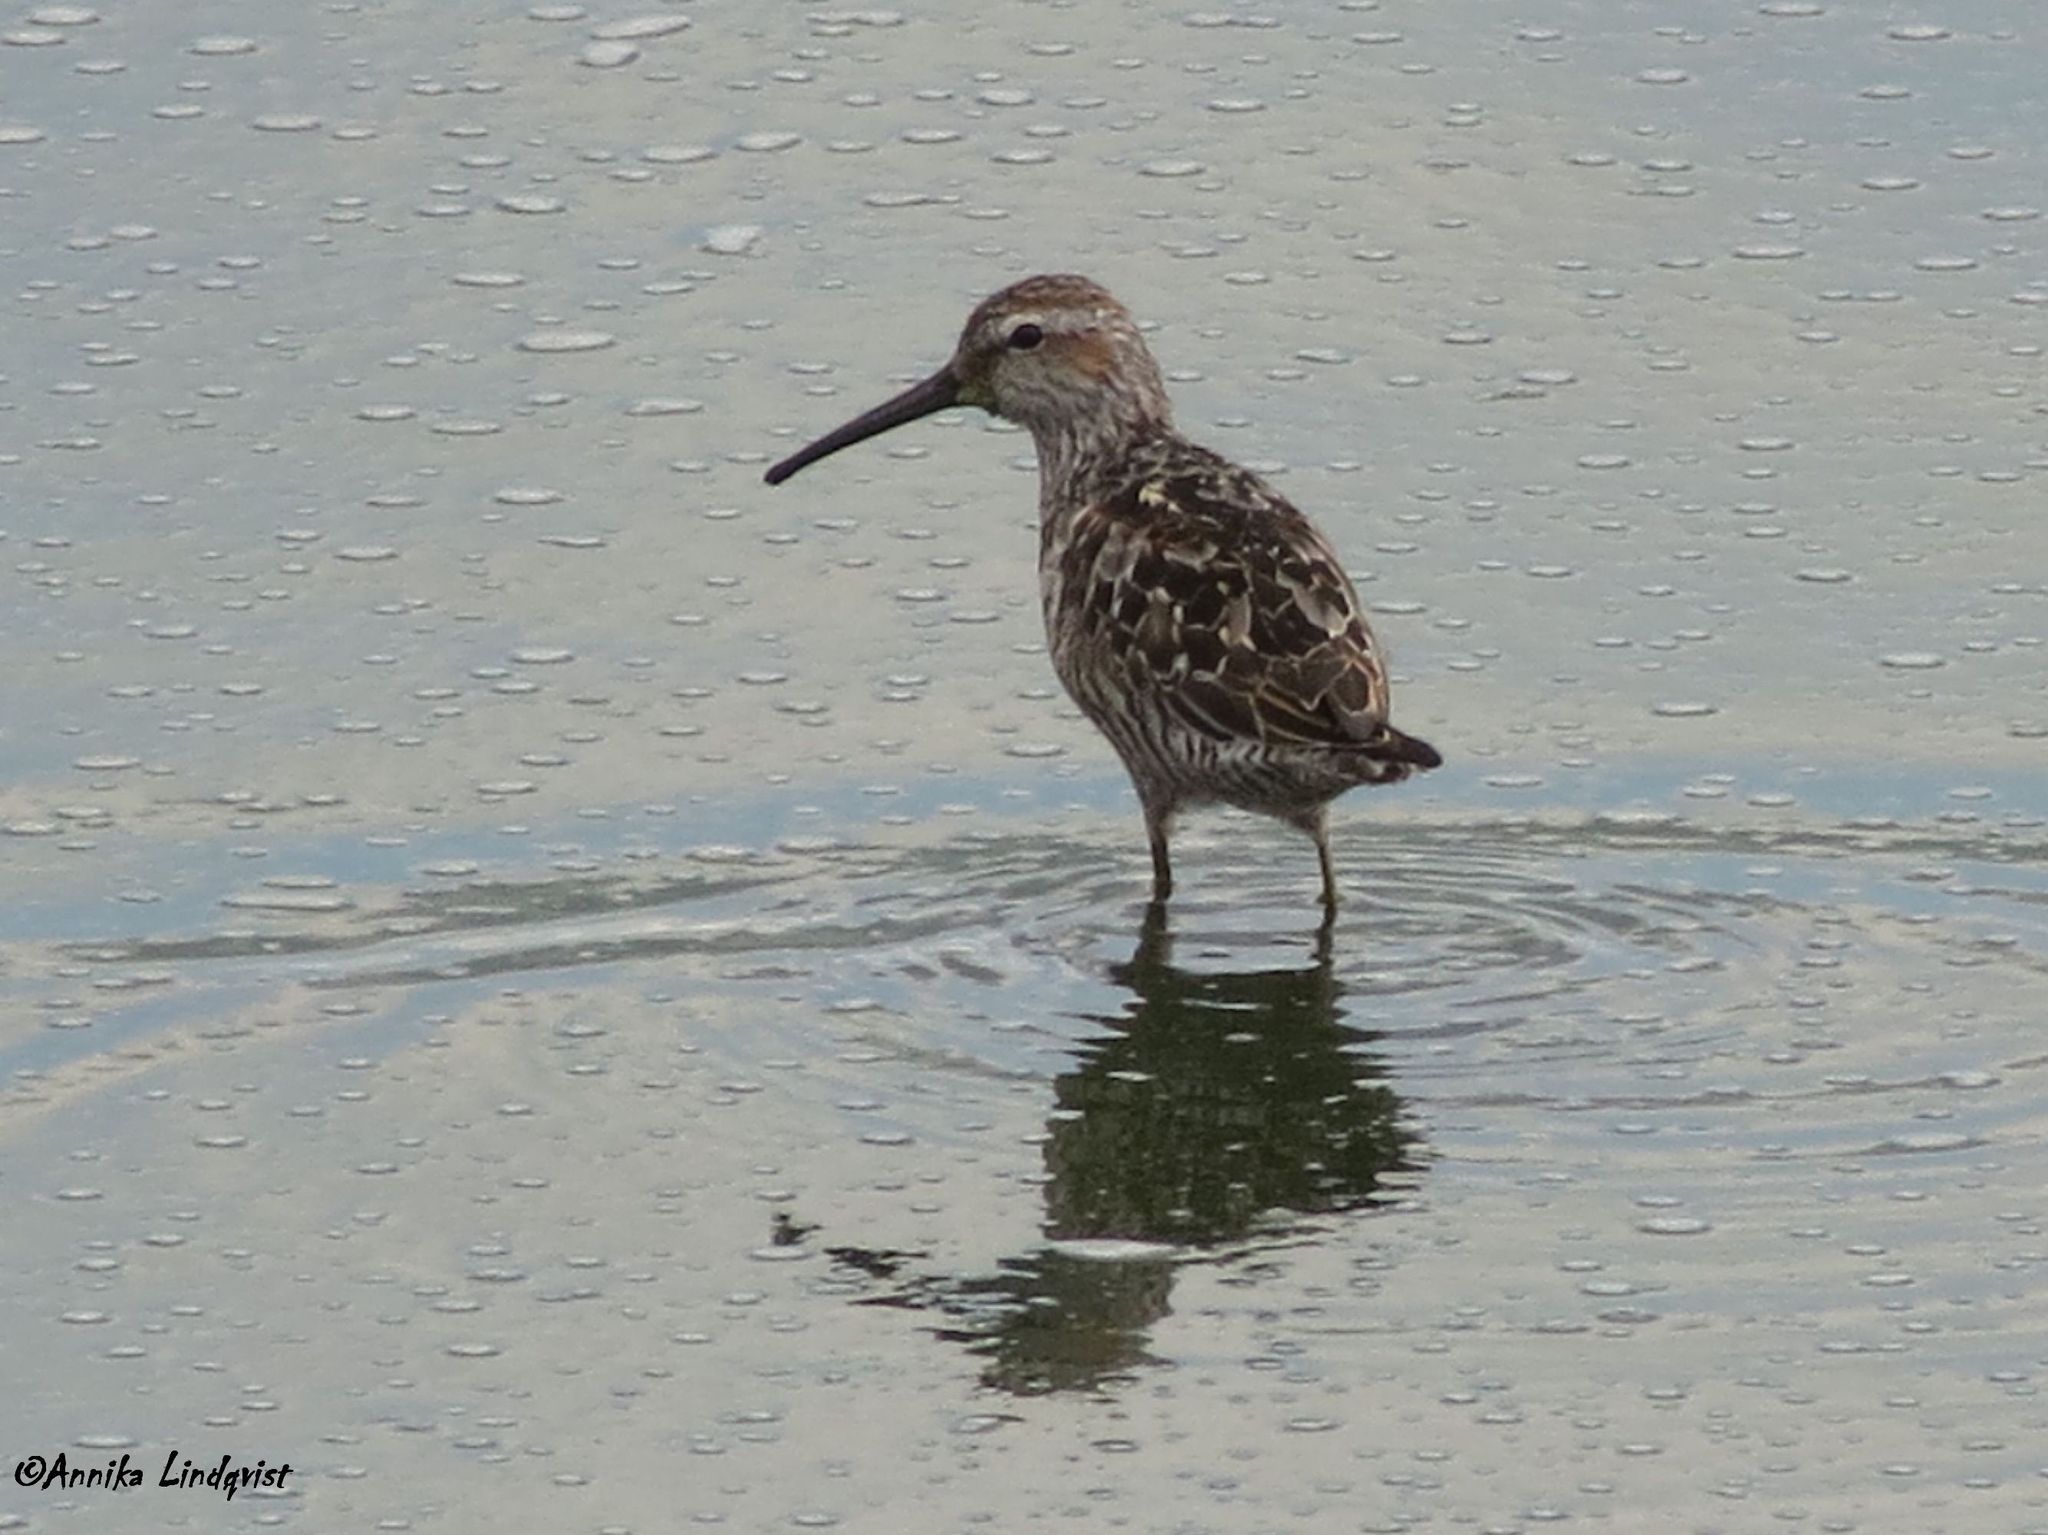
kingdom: Animalia
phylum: Chordata
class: Aves
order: Charadriiformes
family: Scolopacidae
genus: Calidris
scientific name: Calidris himantopus
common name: Stilt sandpiper
